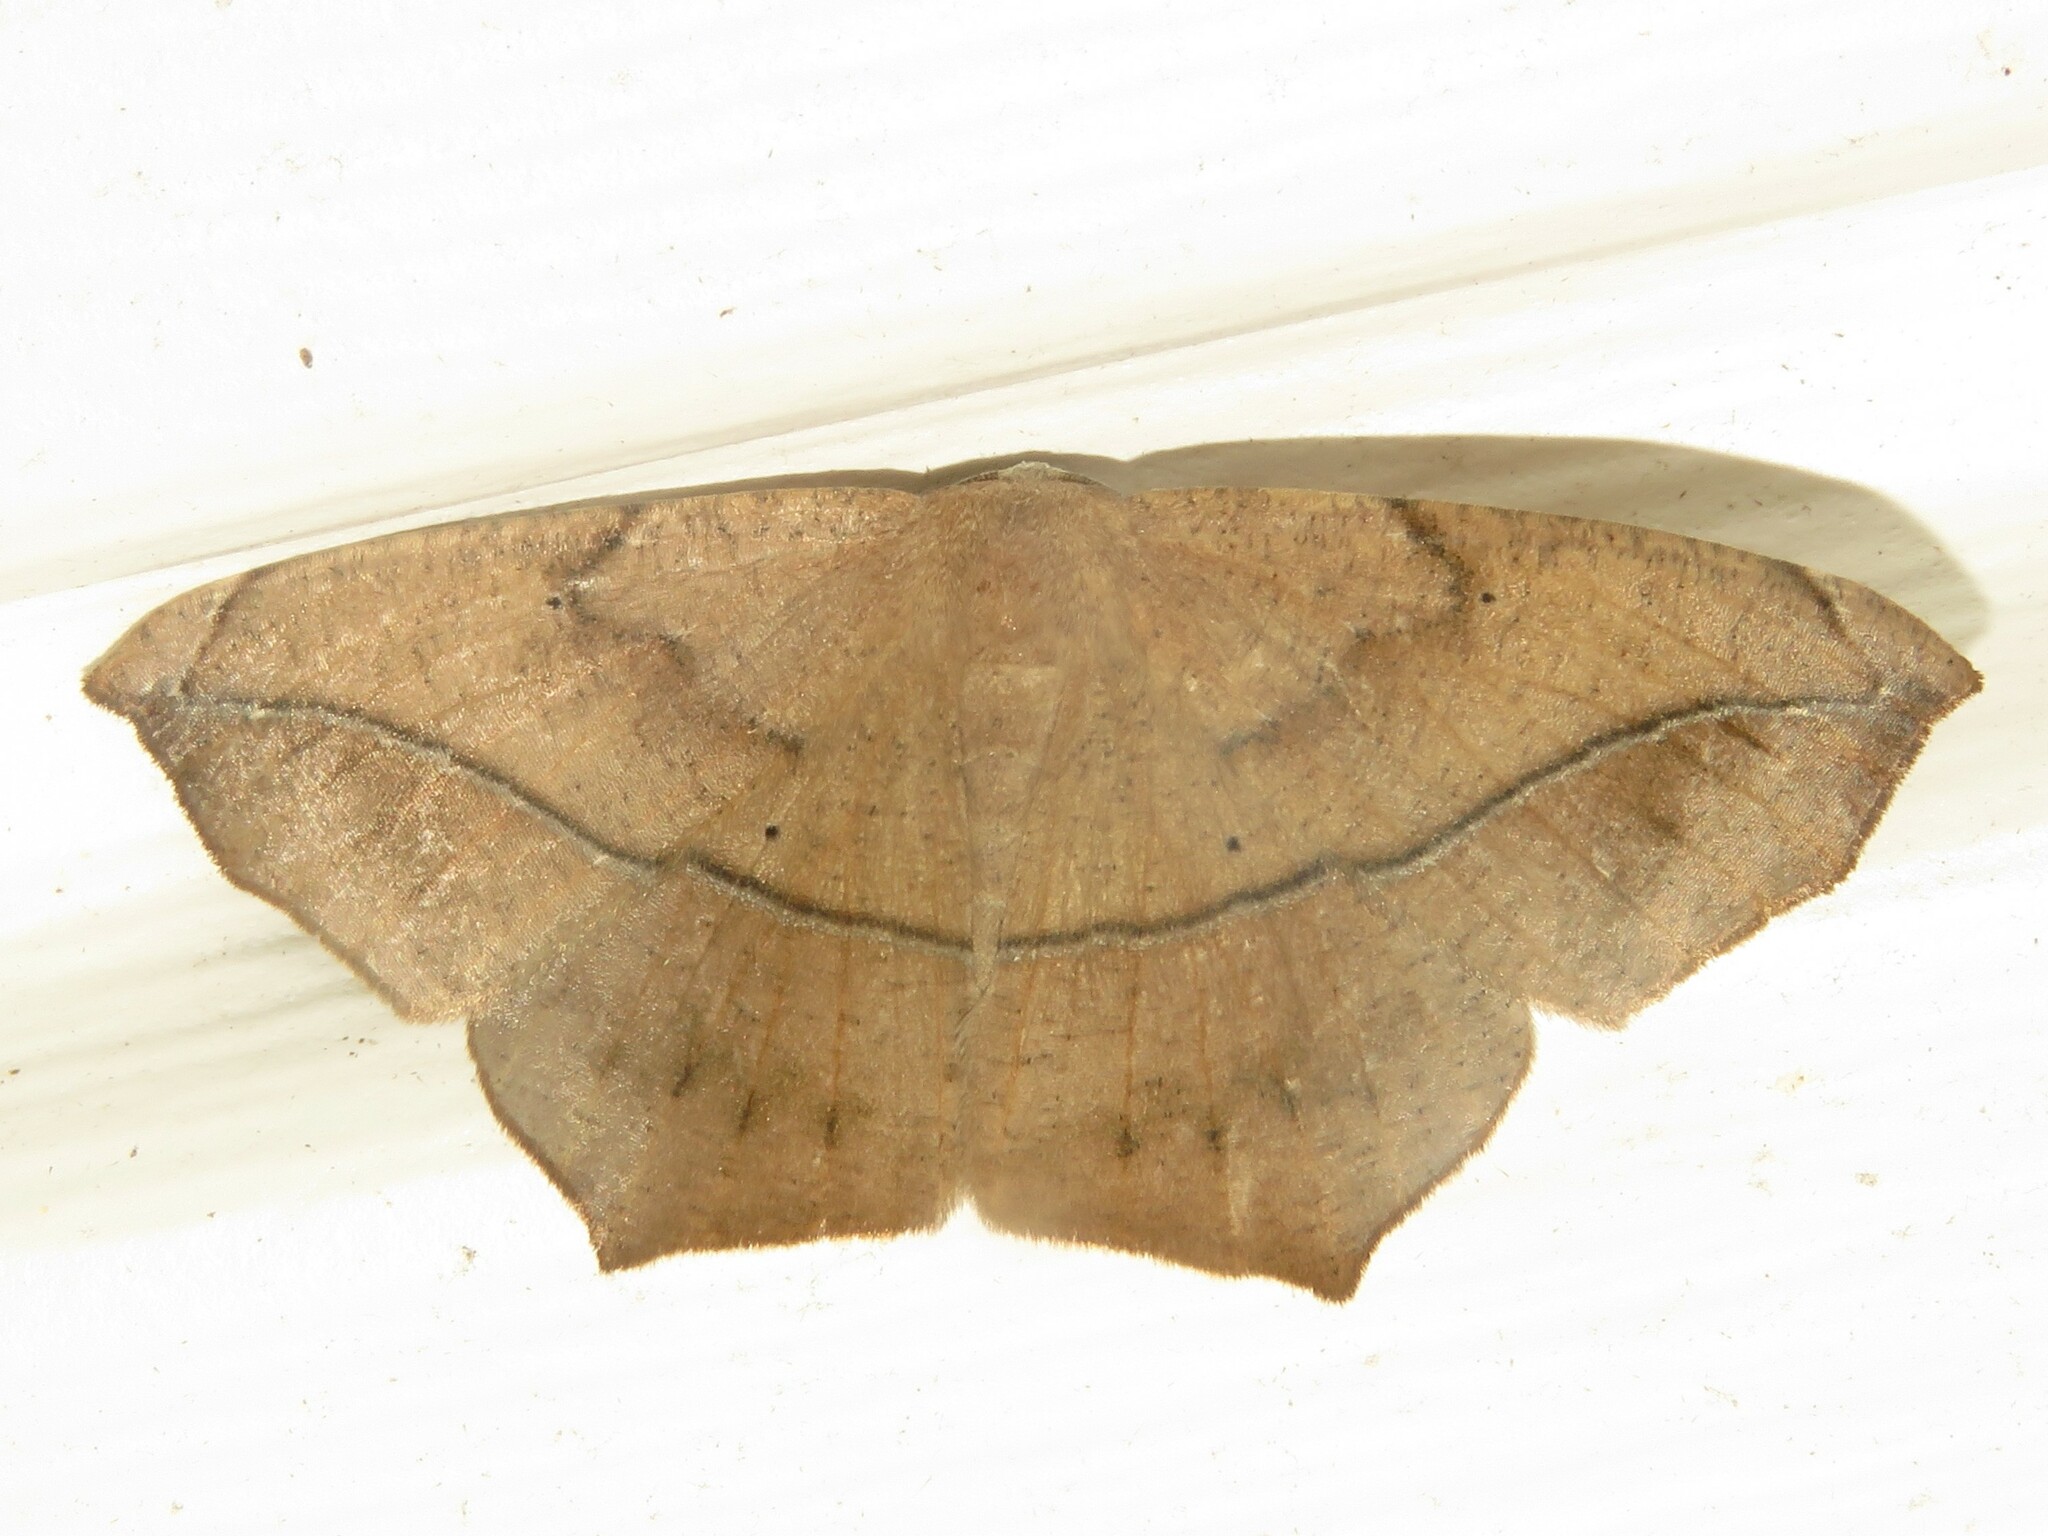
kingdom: Animalia
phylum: Arthropoda
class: Insecta
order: Lepidoptera
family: Geometridae
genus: Prochoerodes
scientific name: Prochoerodes lineola
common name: Large maple spanworm
